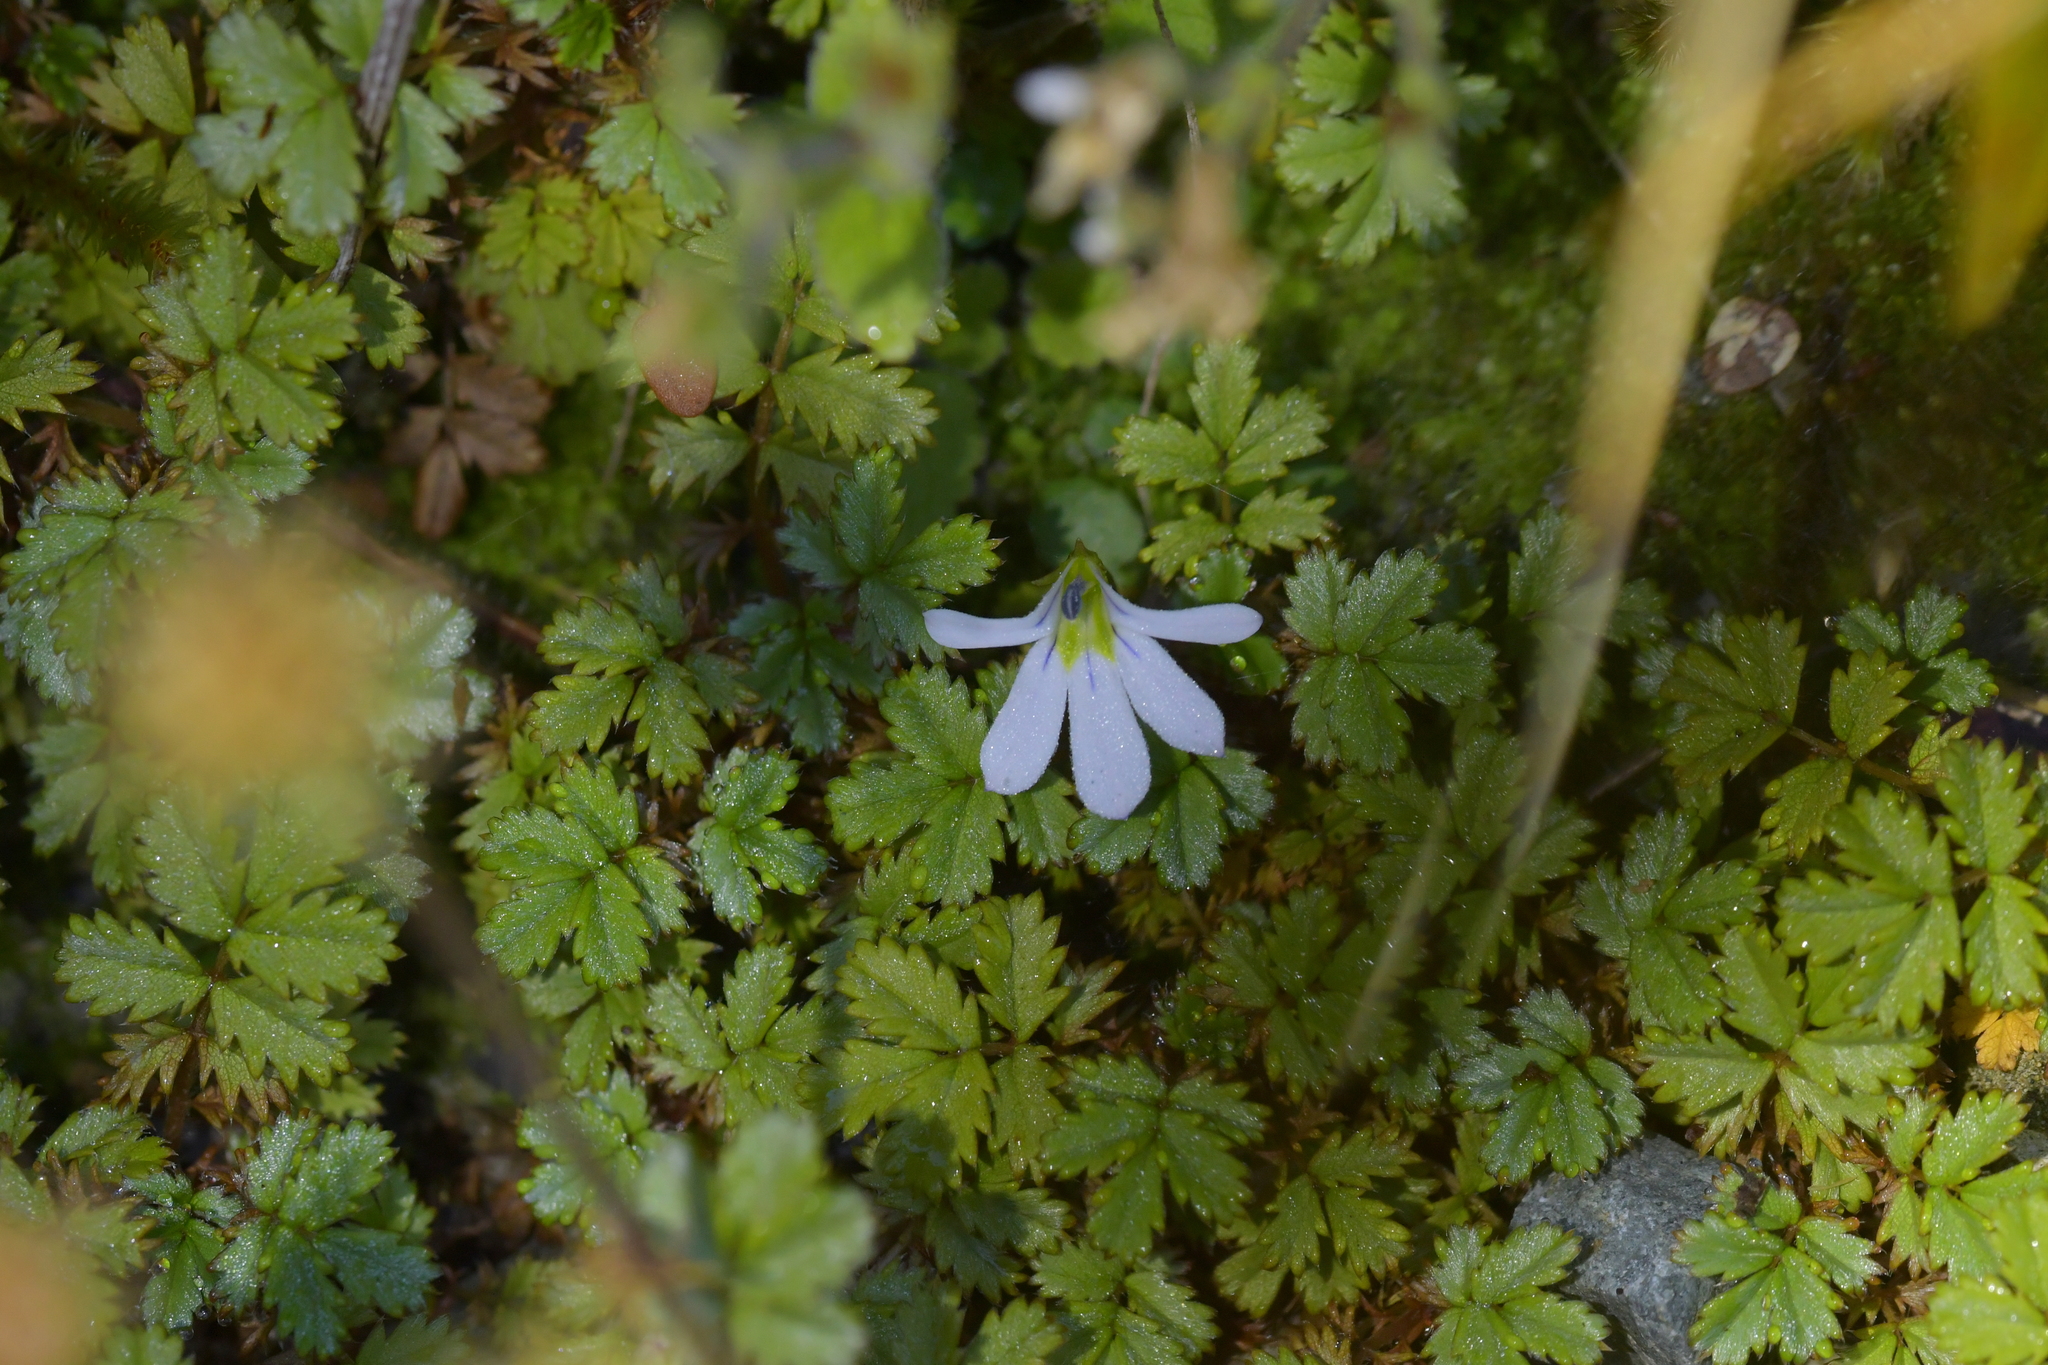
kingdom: Plantae
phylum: Tracheophyta
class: Magnoliopsida
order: Asterales
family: Campanulaceae
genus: Lobelia
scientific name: Lobelia angulata
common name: Lawn lobelia
